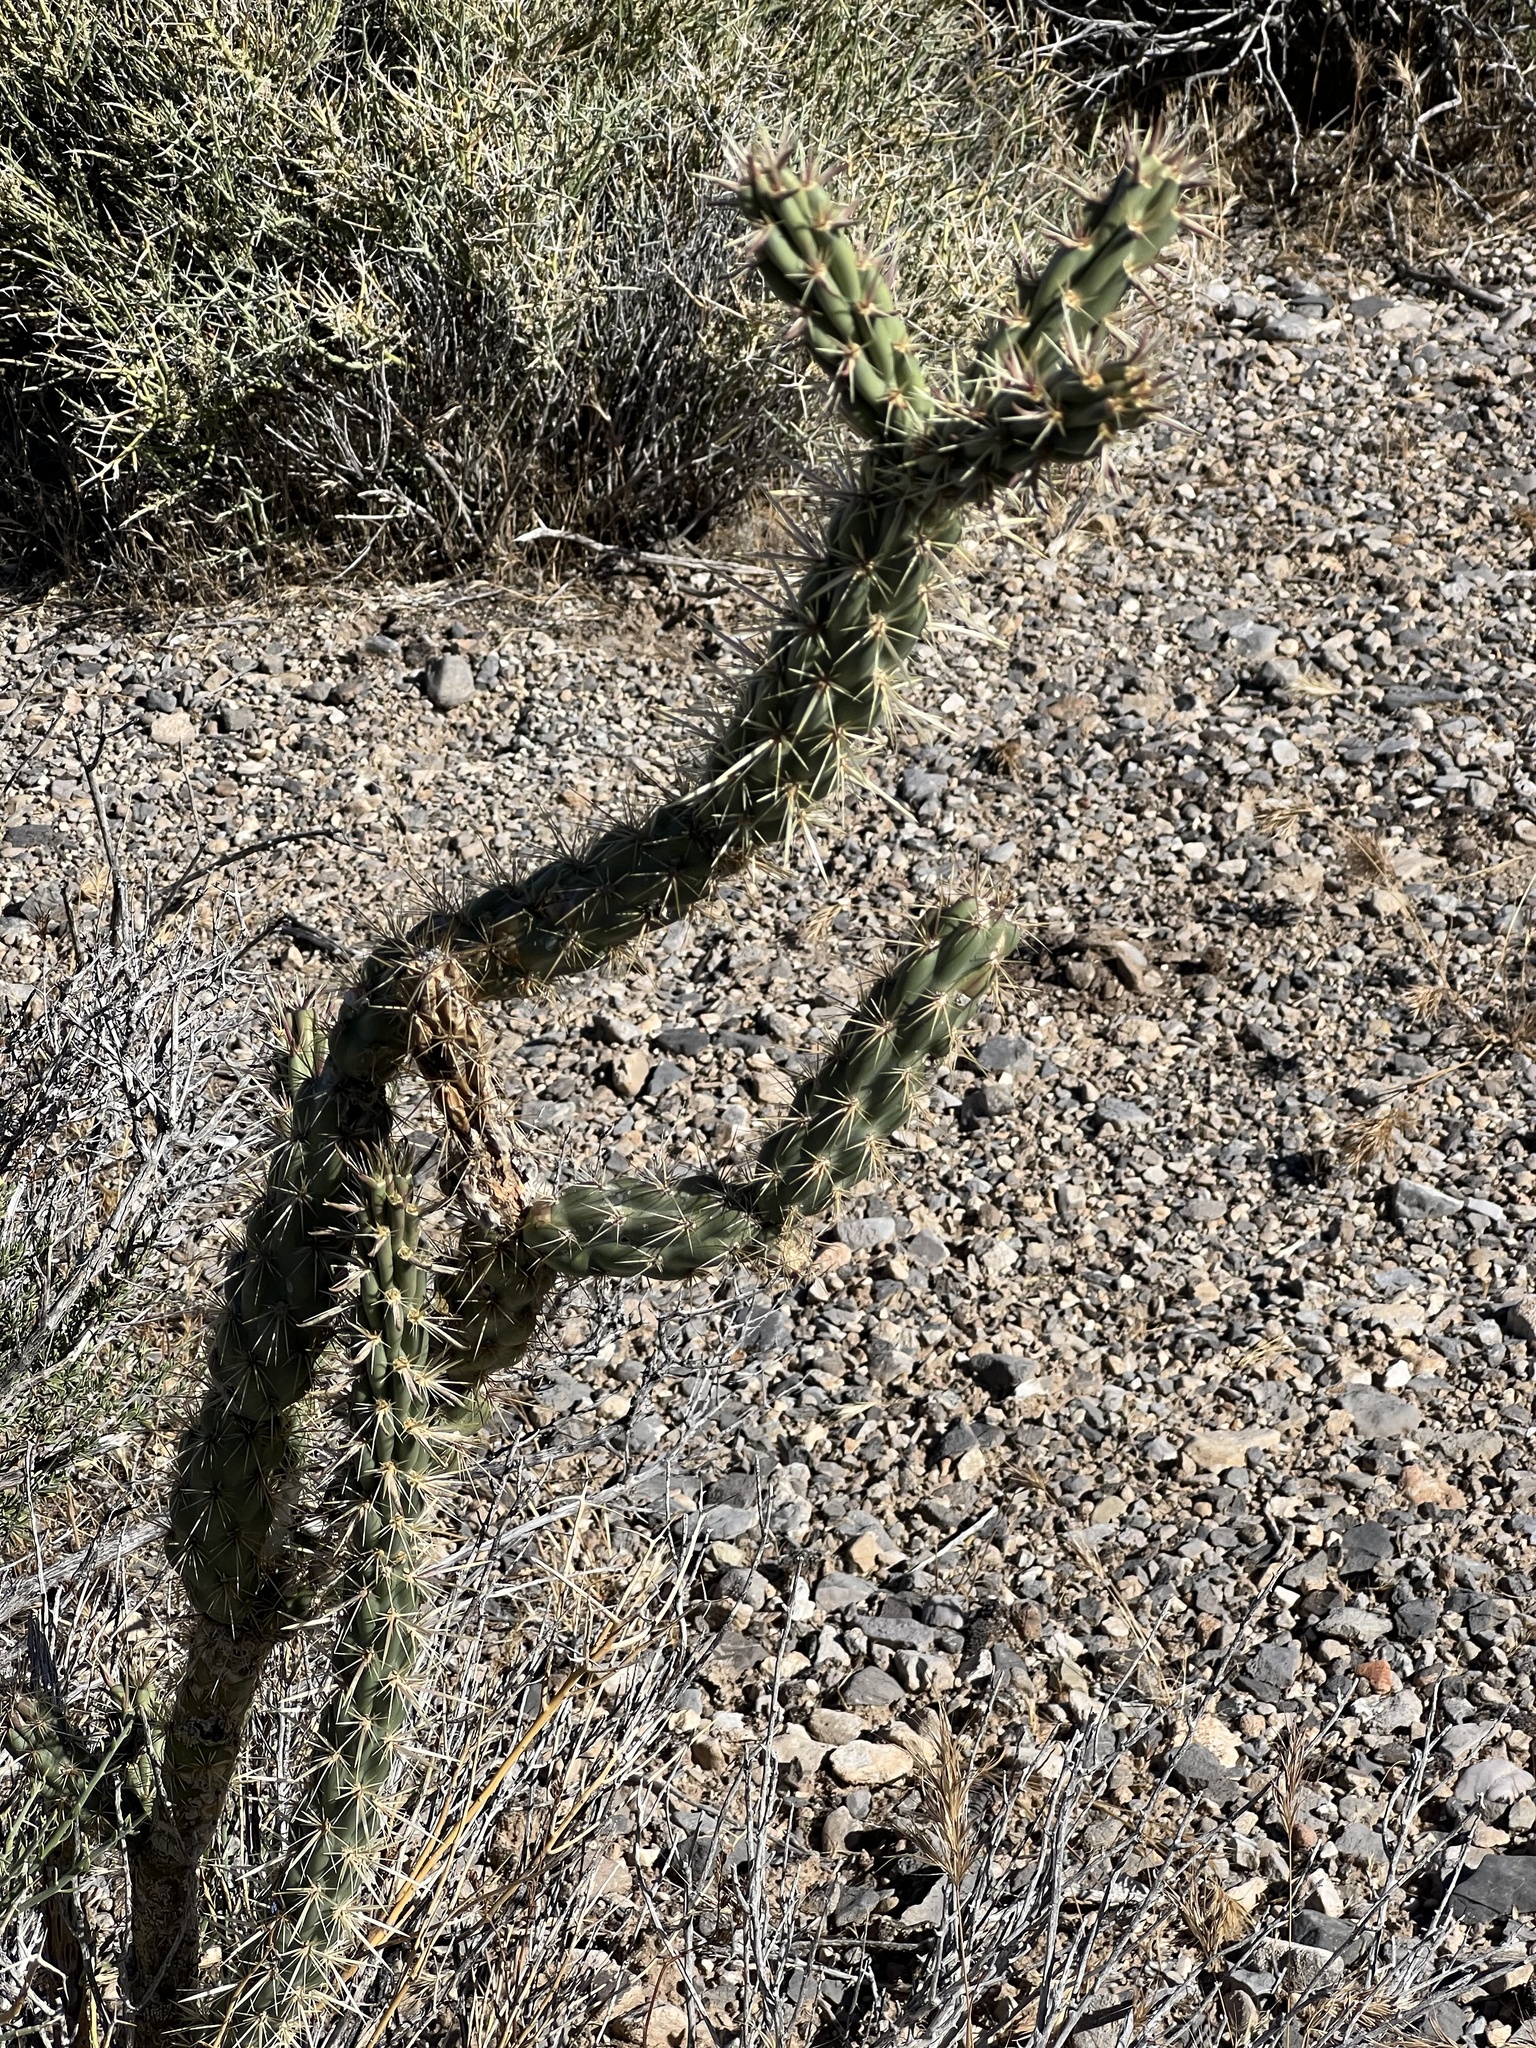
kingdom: Plantae
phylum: Tracheophyta
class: Magnoliopsida
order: Caryophyllales
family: Cactaceae
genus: Cylindropuntia
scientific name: Cylindropuntia acanthocarpa
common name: Buckhorn cholla
